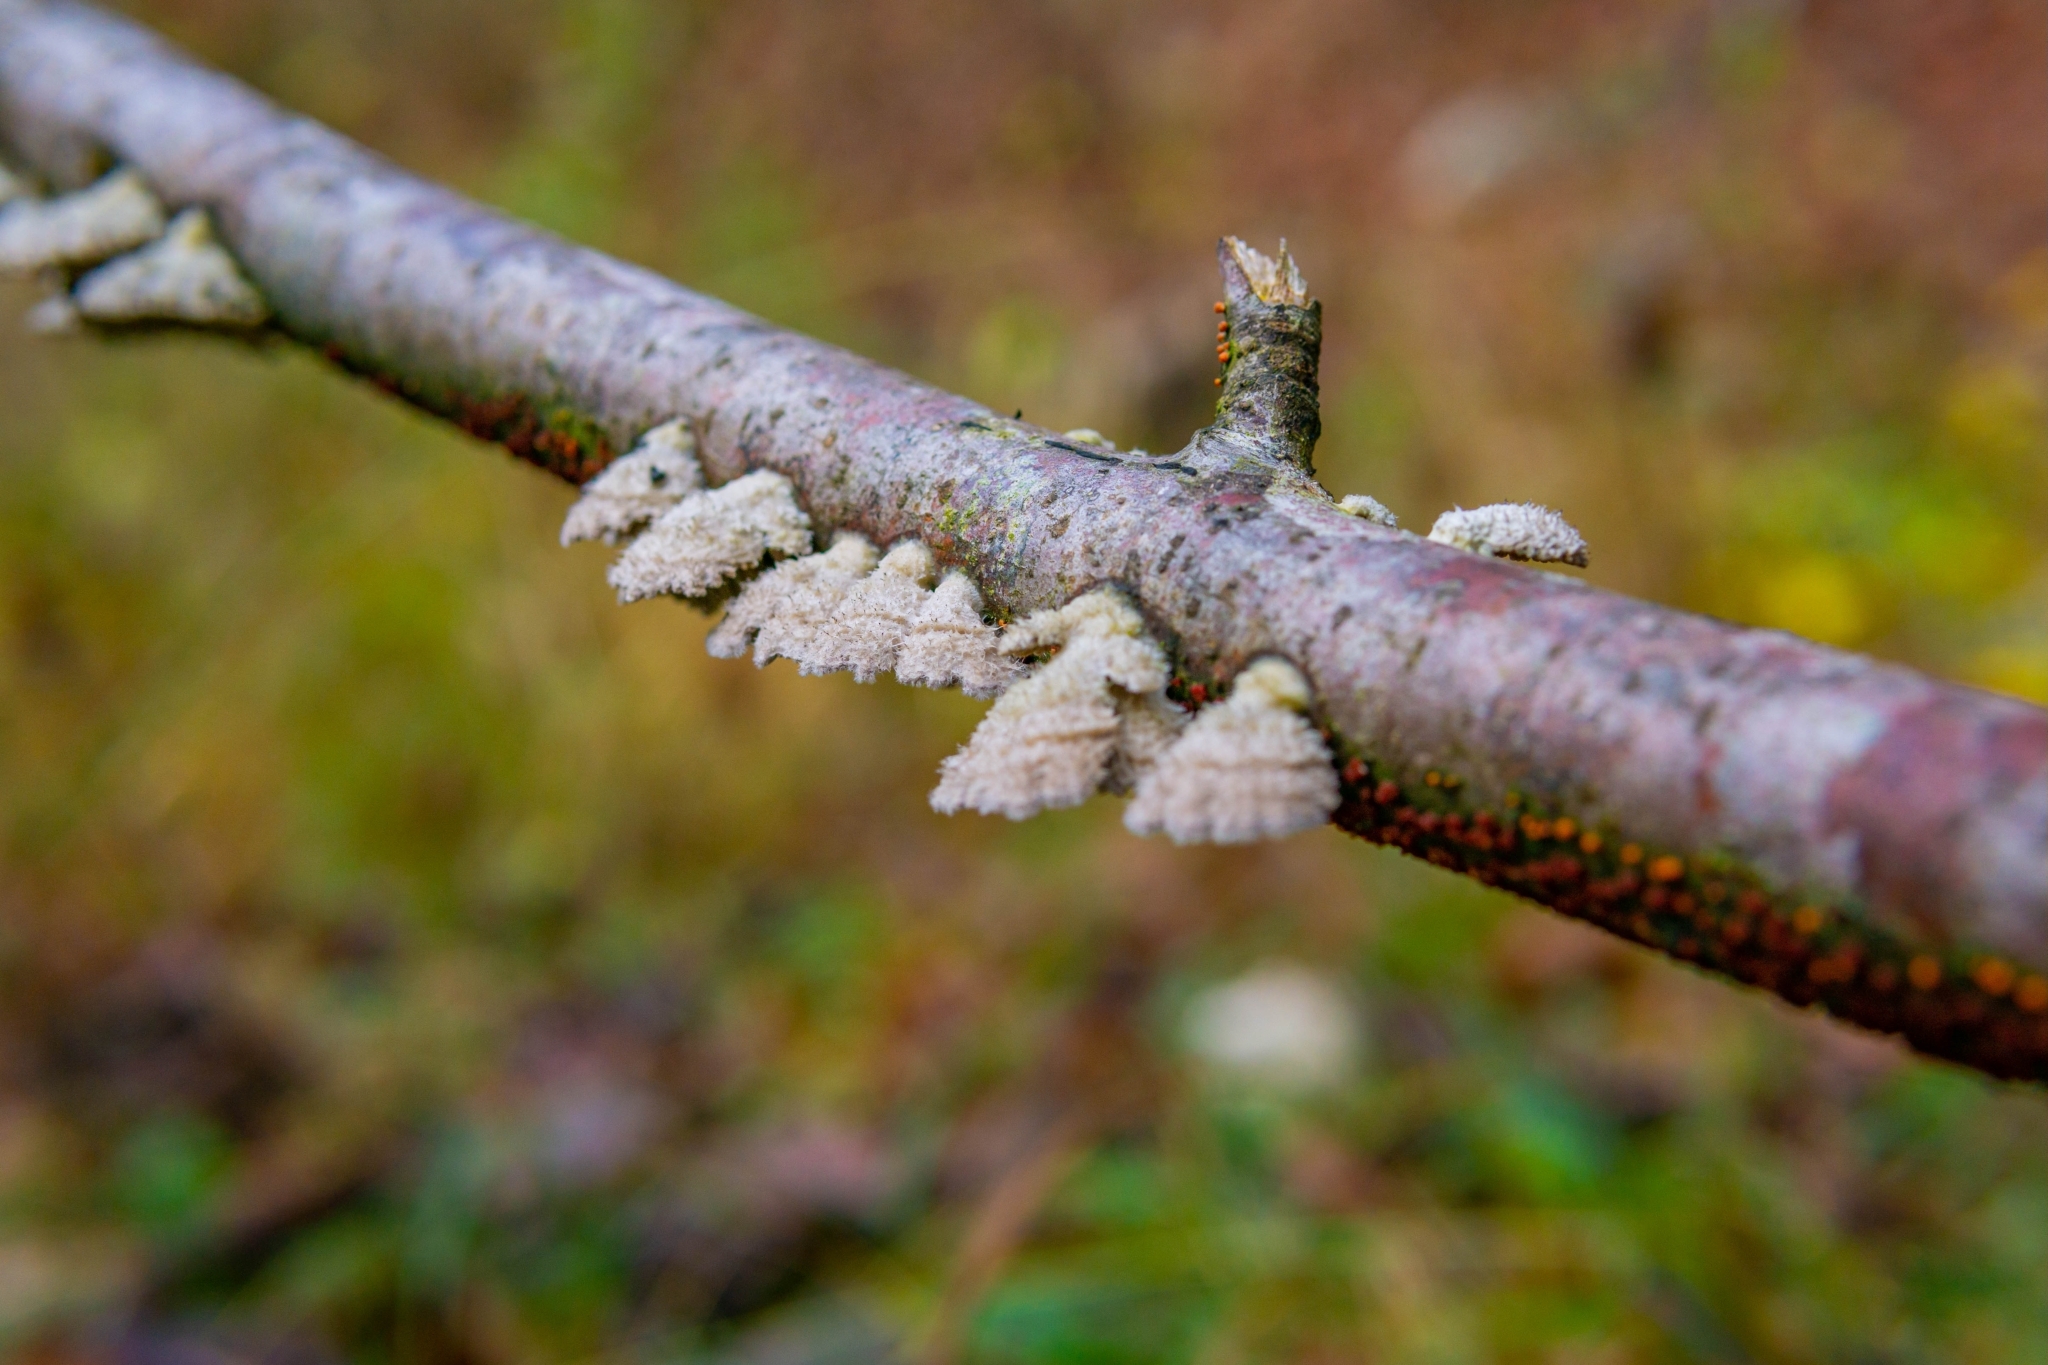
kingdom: Fungi
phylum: Basidiomycota
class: Agaricomycetes
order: Agaricales
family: Schizophyllaceae
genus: Schizophyllum
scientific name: Schizophyllum commune
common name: Common porecrust
